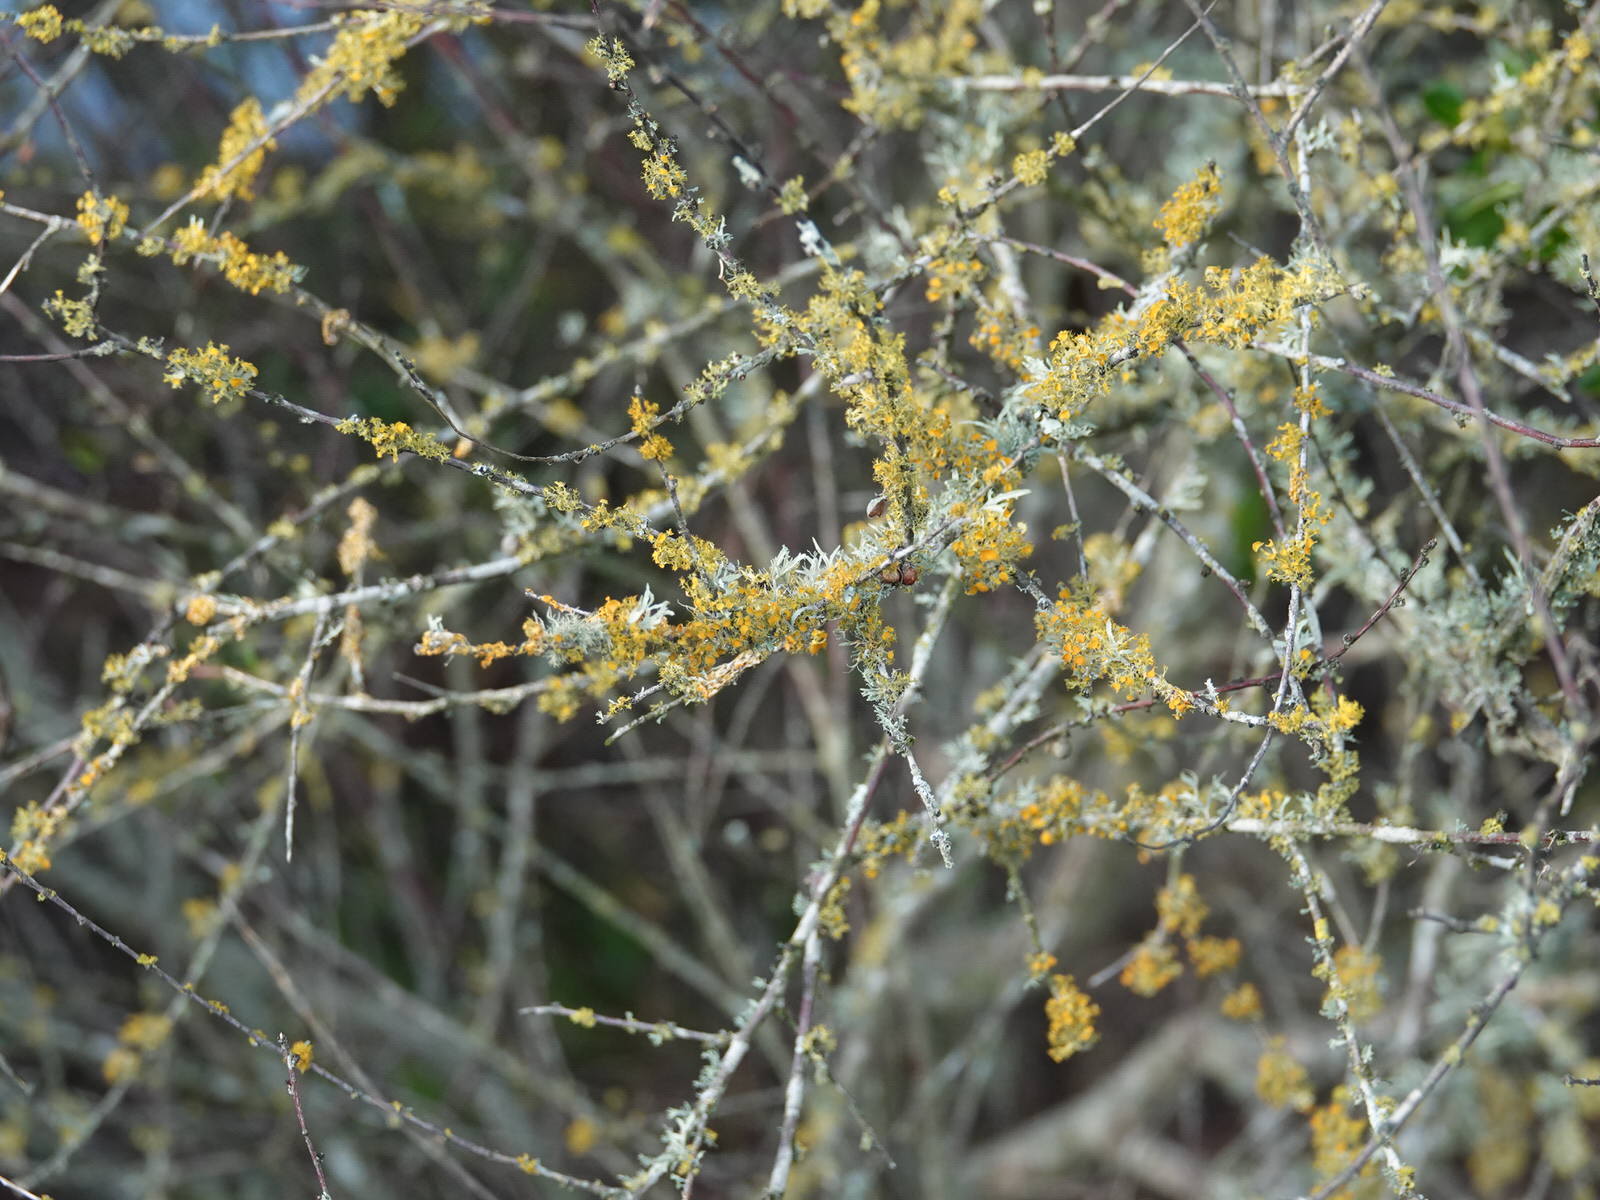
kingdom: Fungi
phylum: Ascomycota
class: Lecanoromycetes
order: Teloschistales
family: Teloschistaceae
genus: Niorma
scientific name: Niorma chrysophthalma
